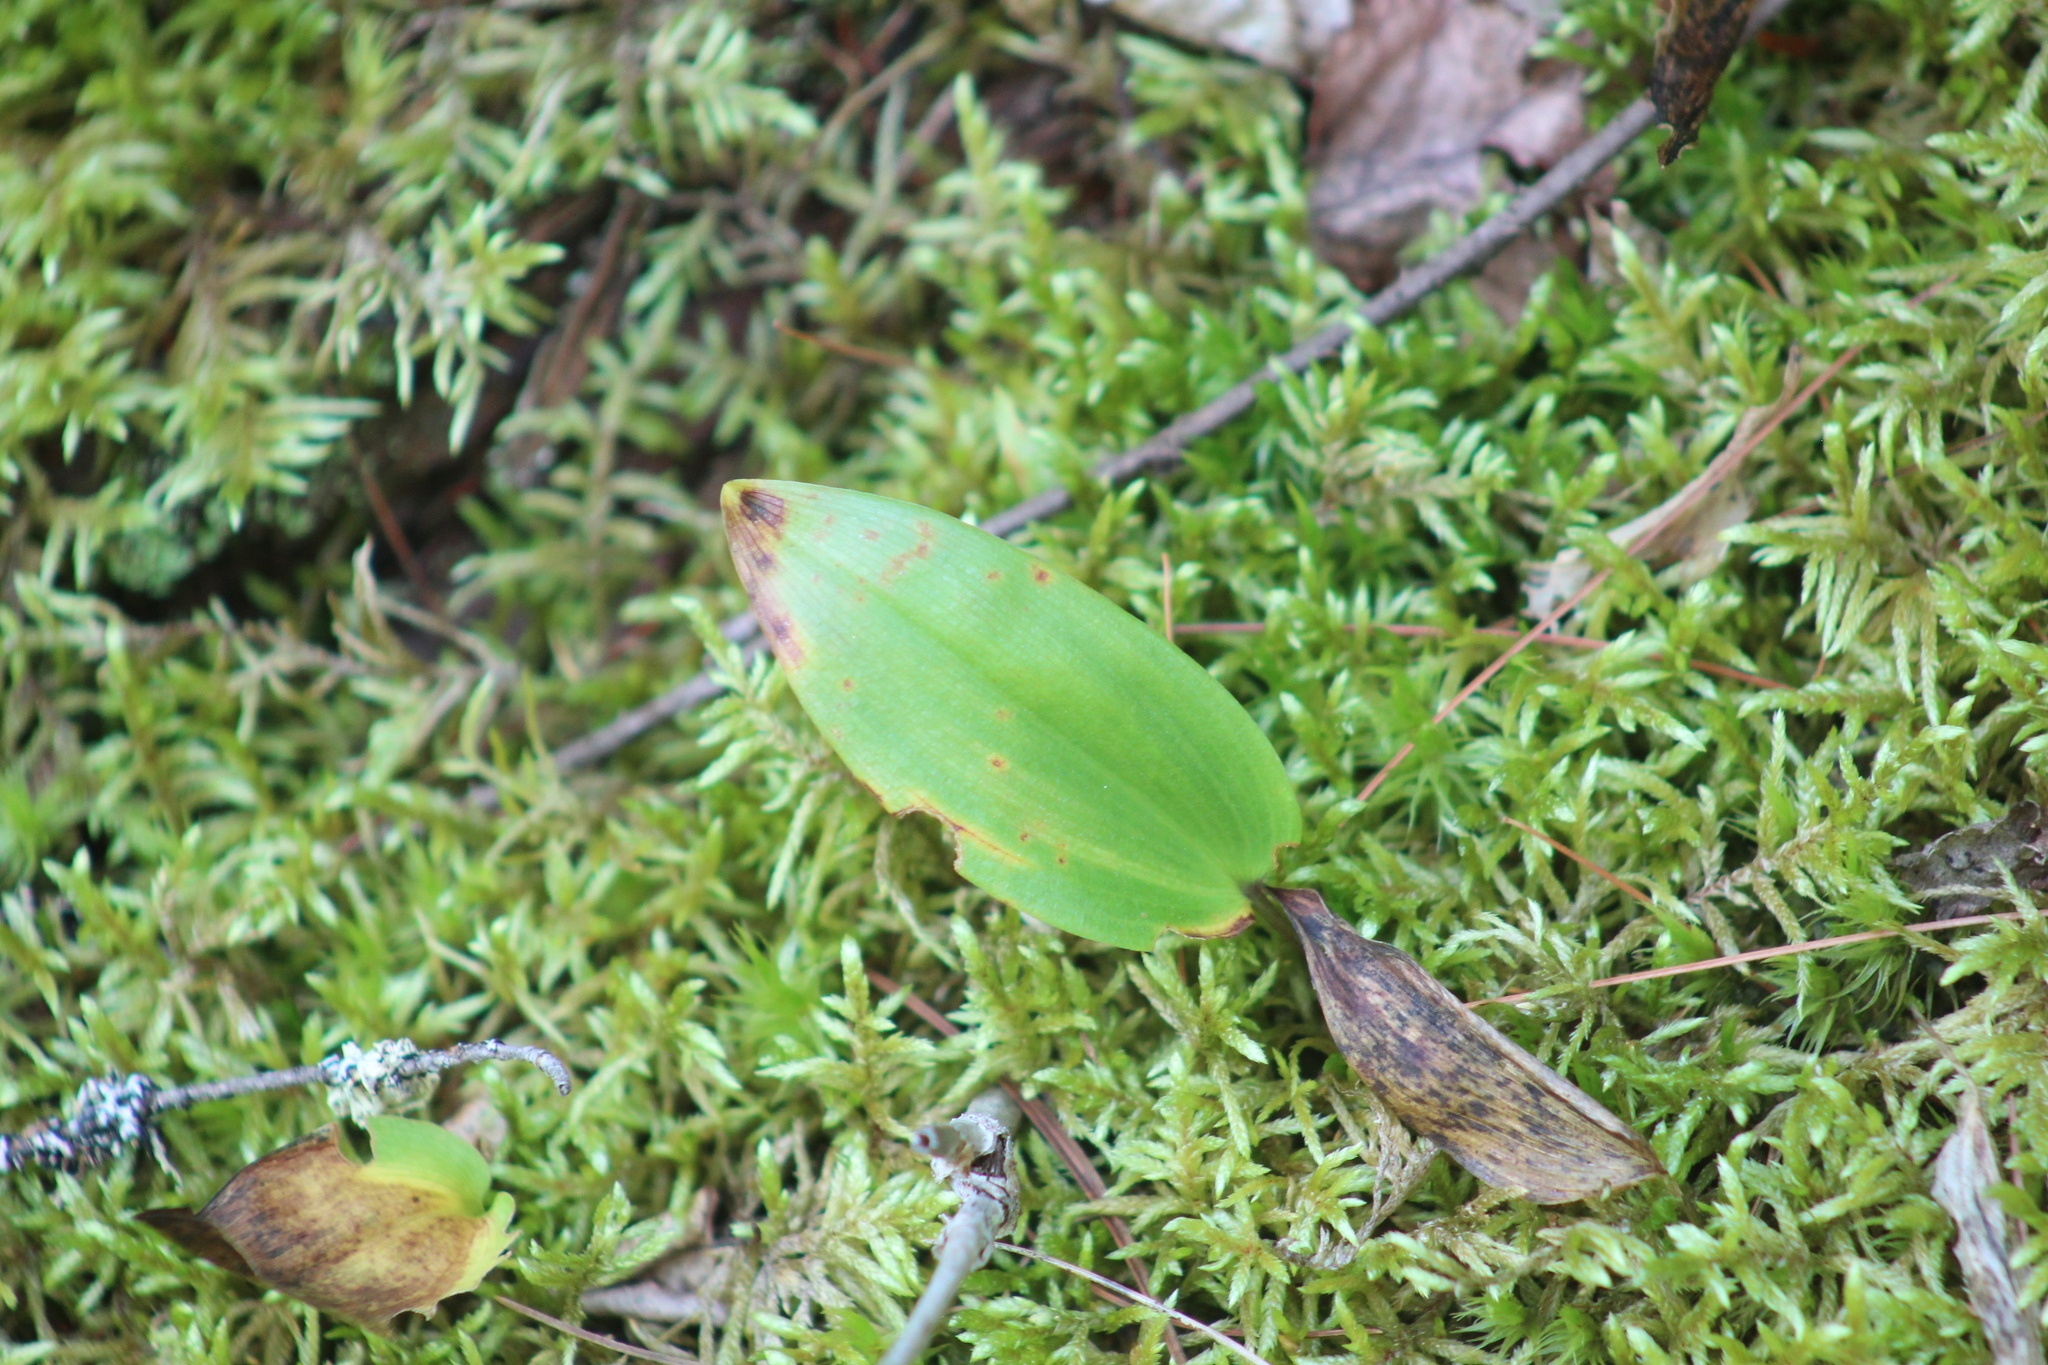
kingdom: Plantae
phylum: Tracheophyta
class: Liliopsida
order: Asparagales
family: Asparagaceae
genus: Maianthemum
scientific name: Maianthemum canadense
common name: False lily-of-the-valley
